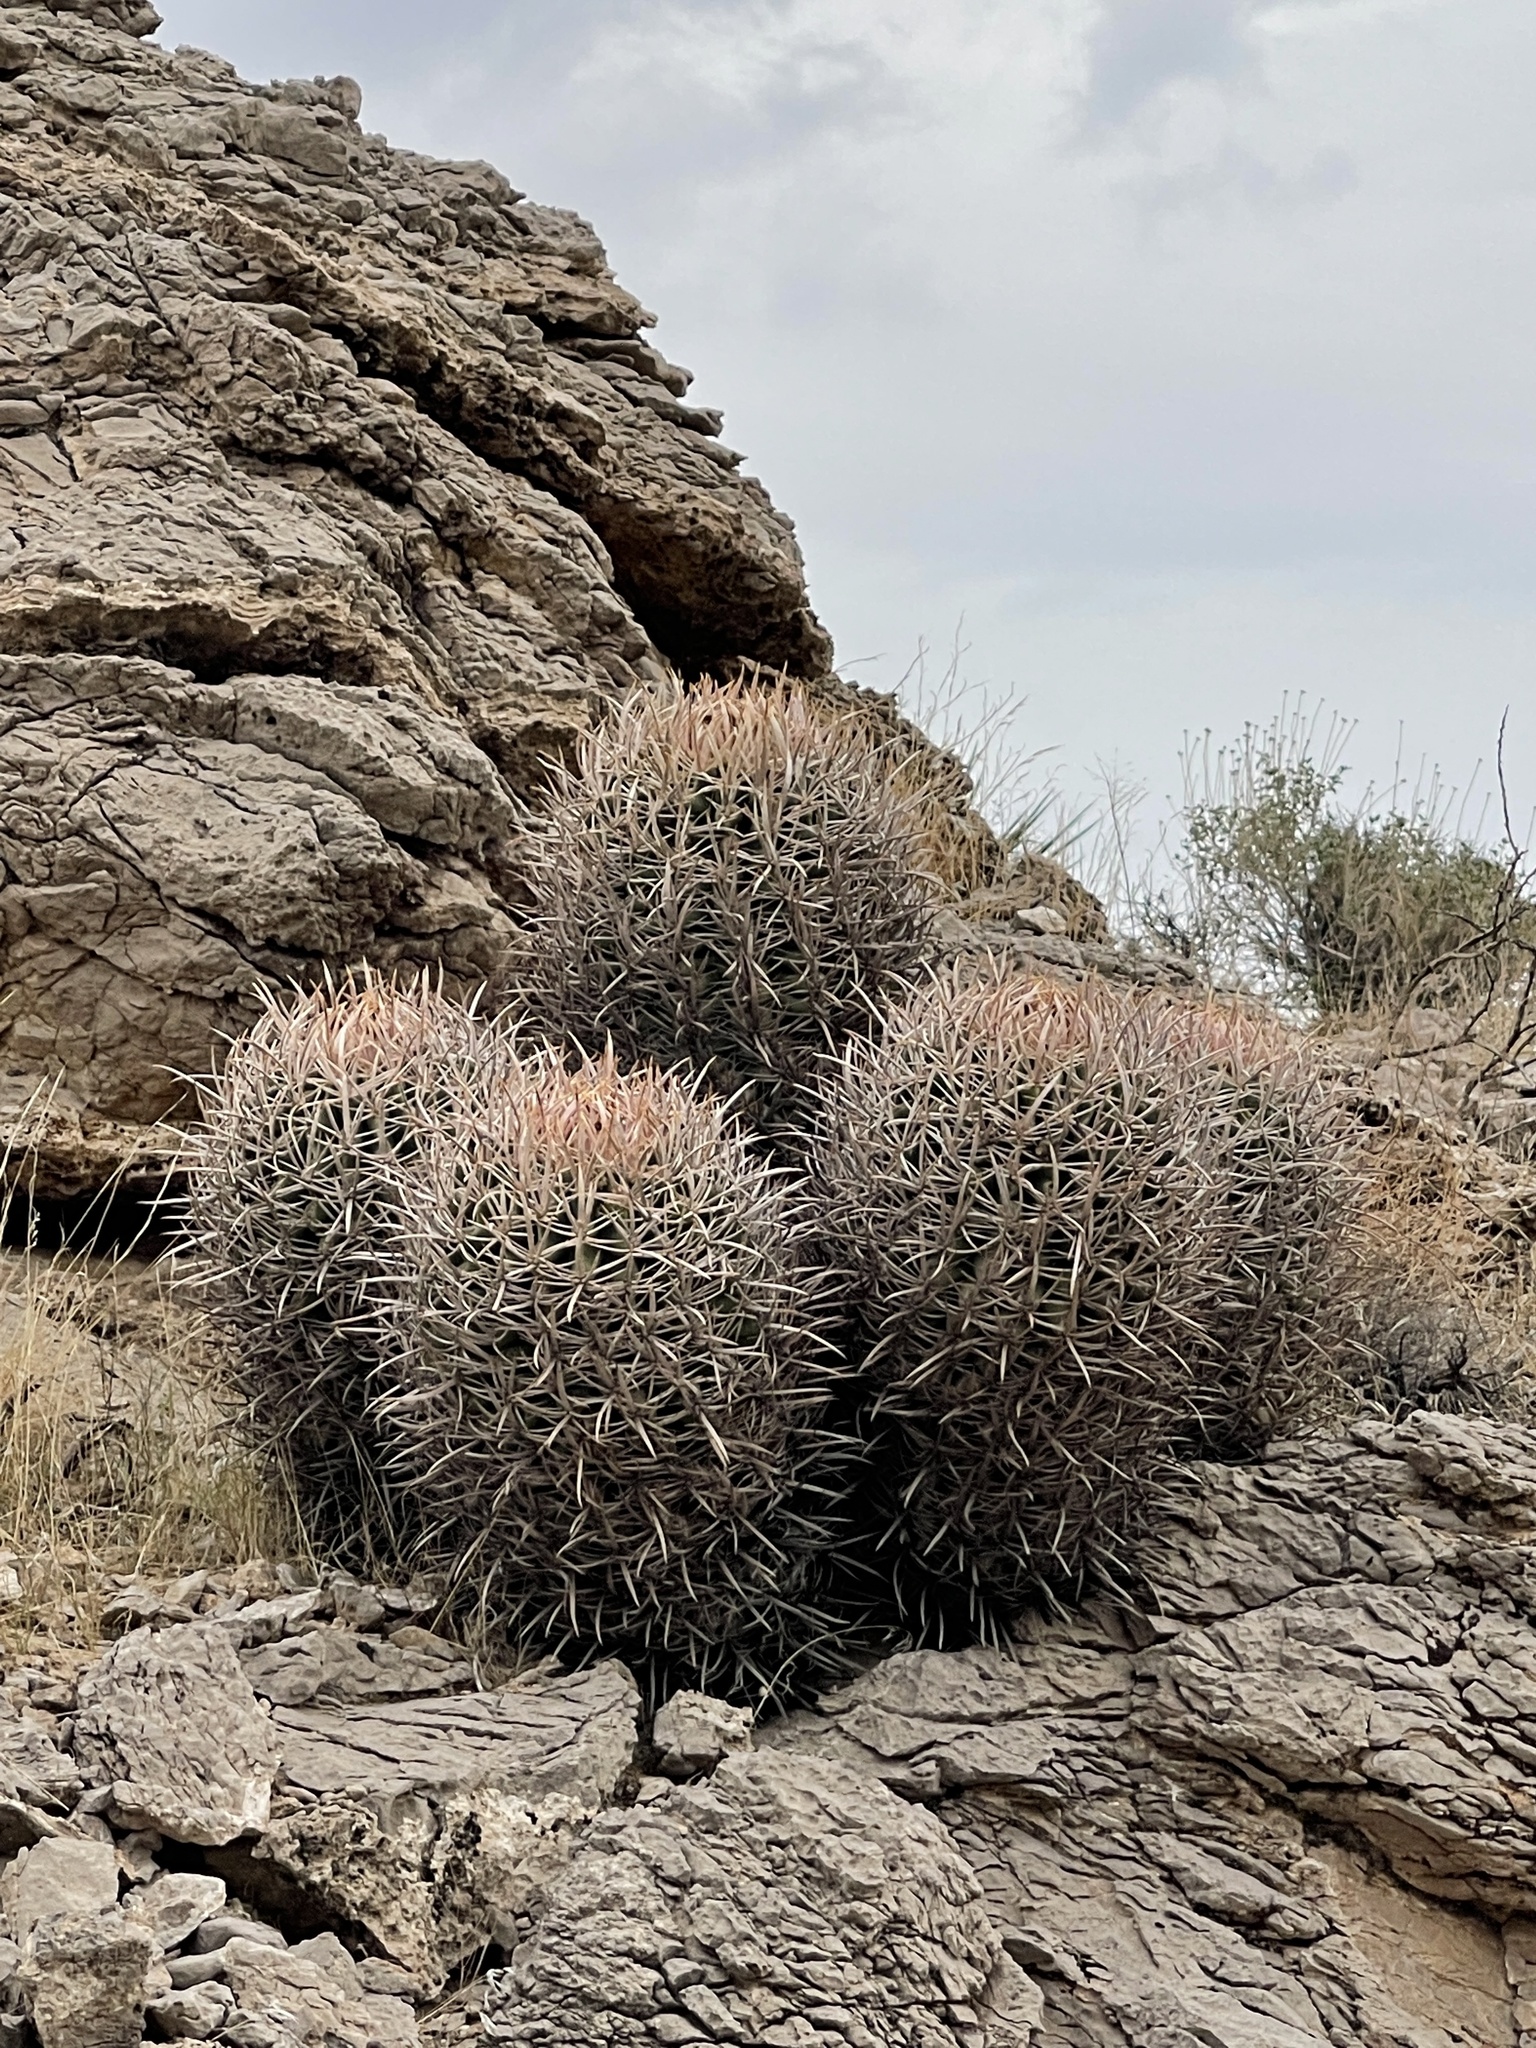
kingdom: Plantae
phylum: Tracheophyta
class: Magnoliopsida
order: Caryophyllales
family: Cactaceae
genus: Echinocactus
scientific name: Echinocactus polycephalus
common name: Cottontop cactus
